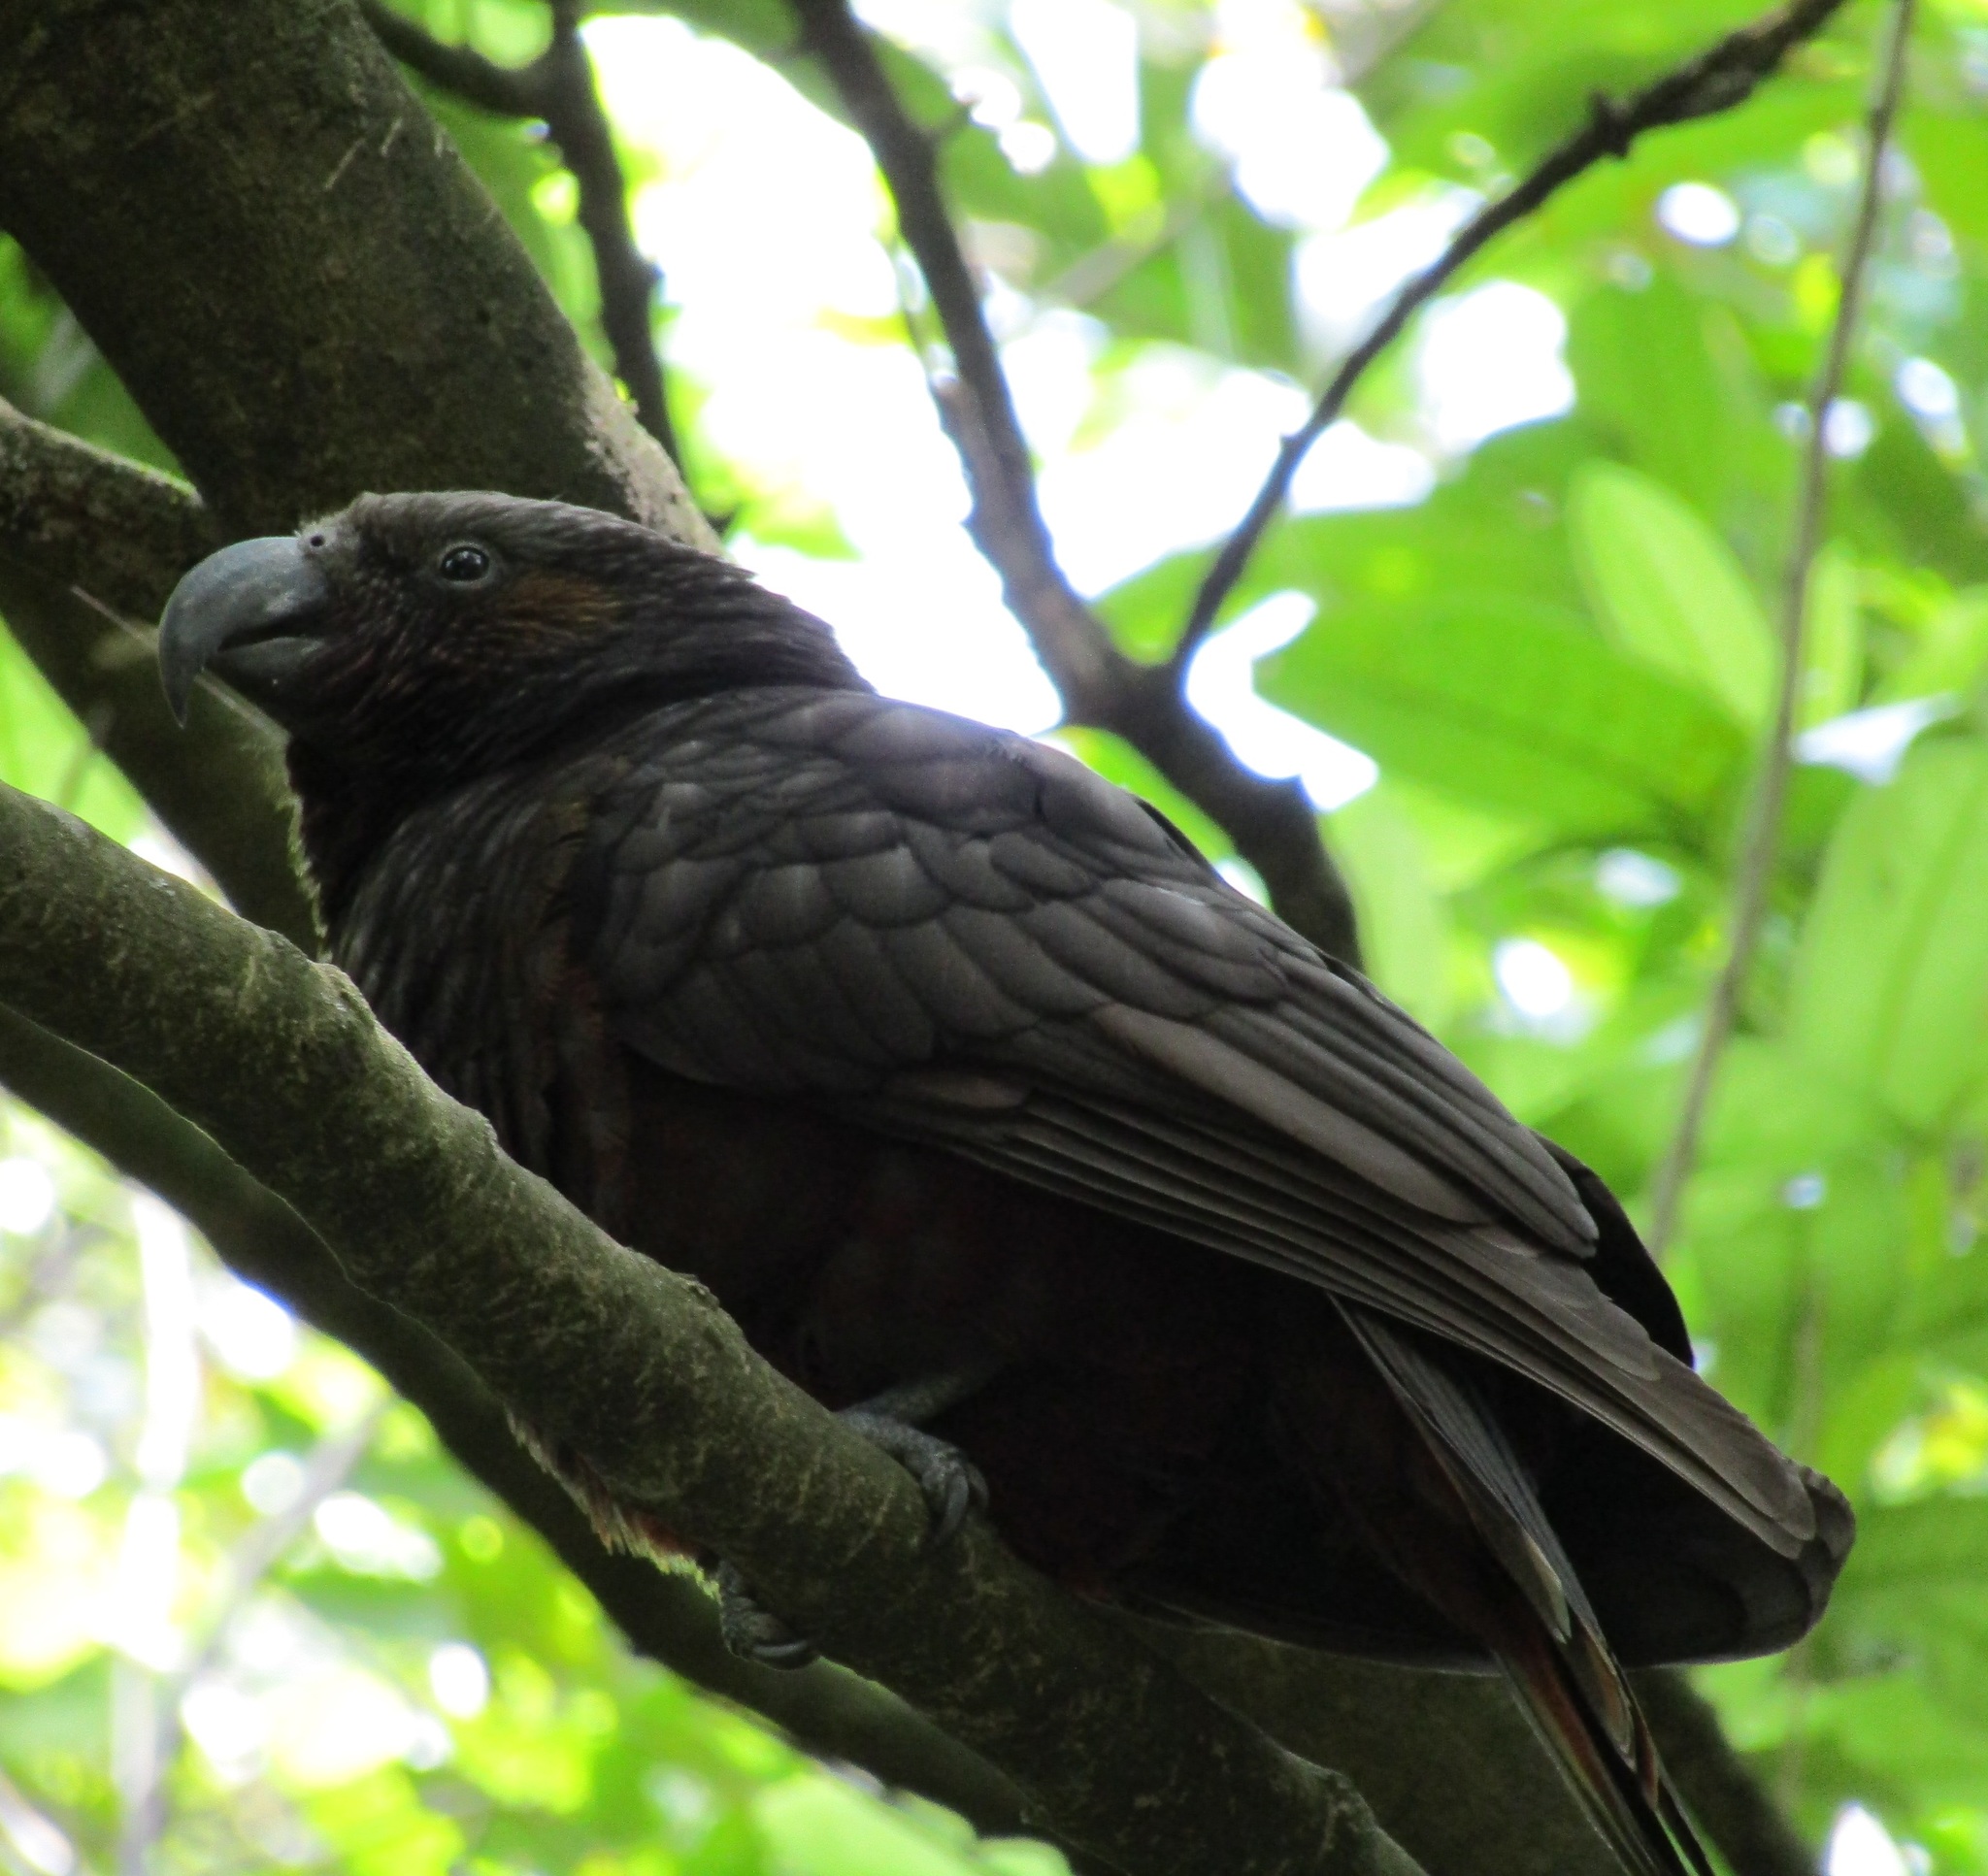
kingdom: Animalia
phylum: Chordata
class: Aves
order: Psittaciformes
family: Psittacidae
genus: Nestor
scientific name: Nestor meridionalis
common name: New zealand kaka
